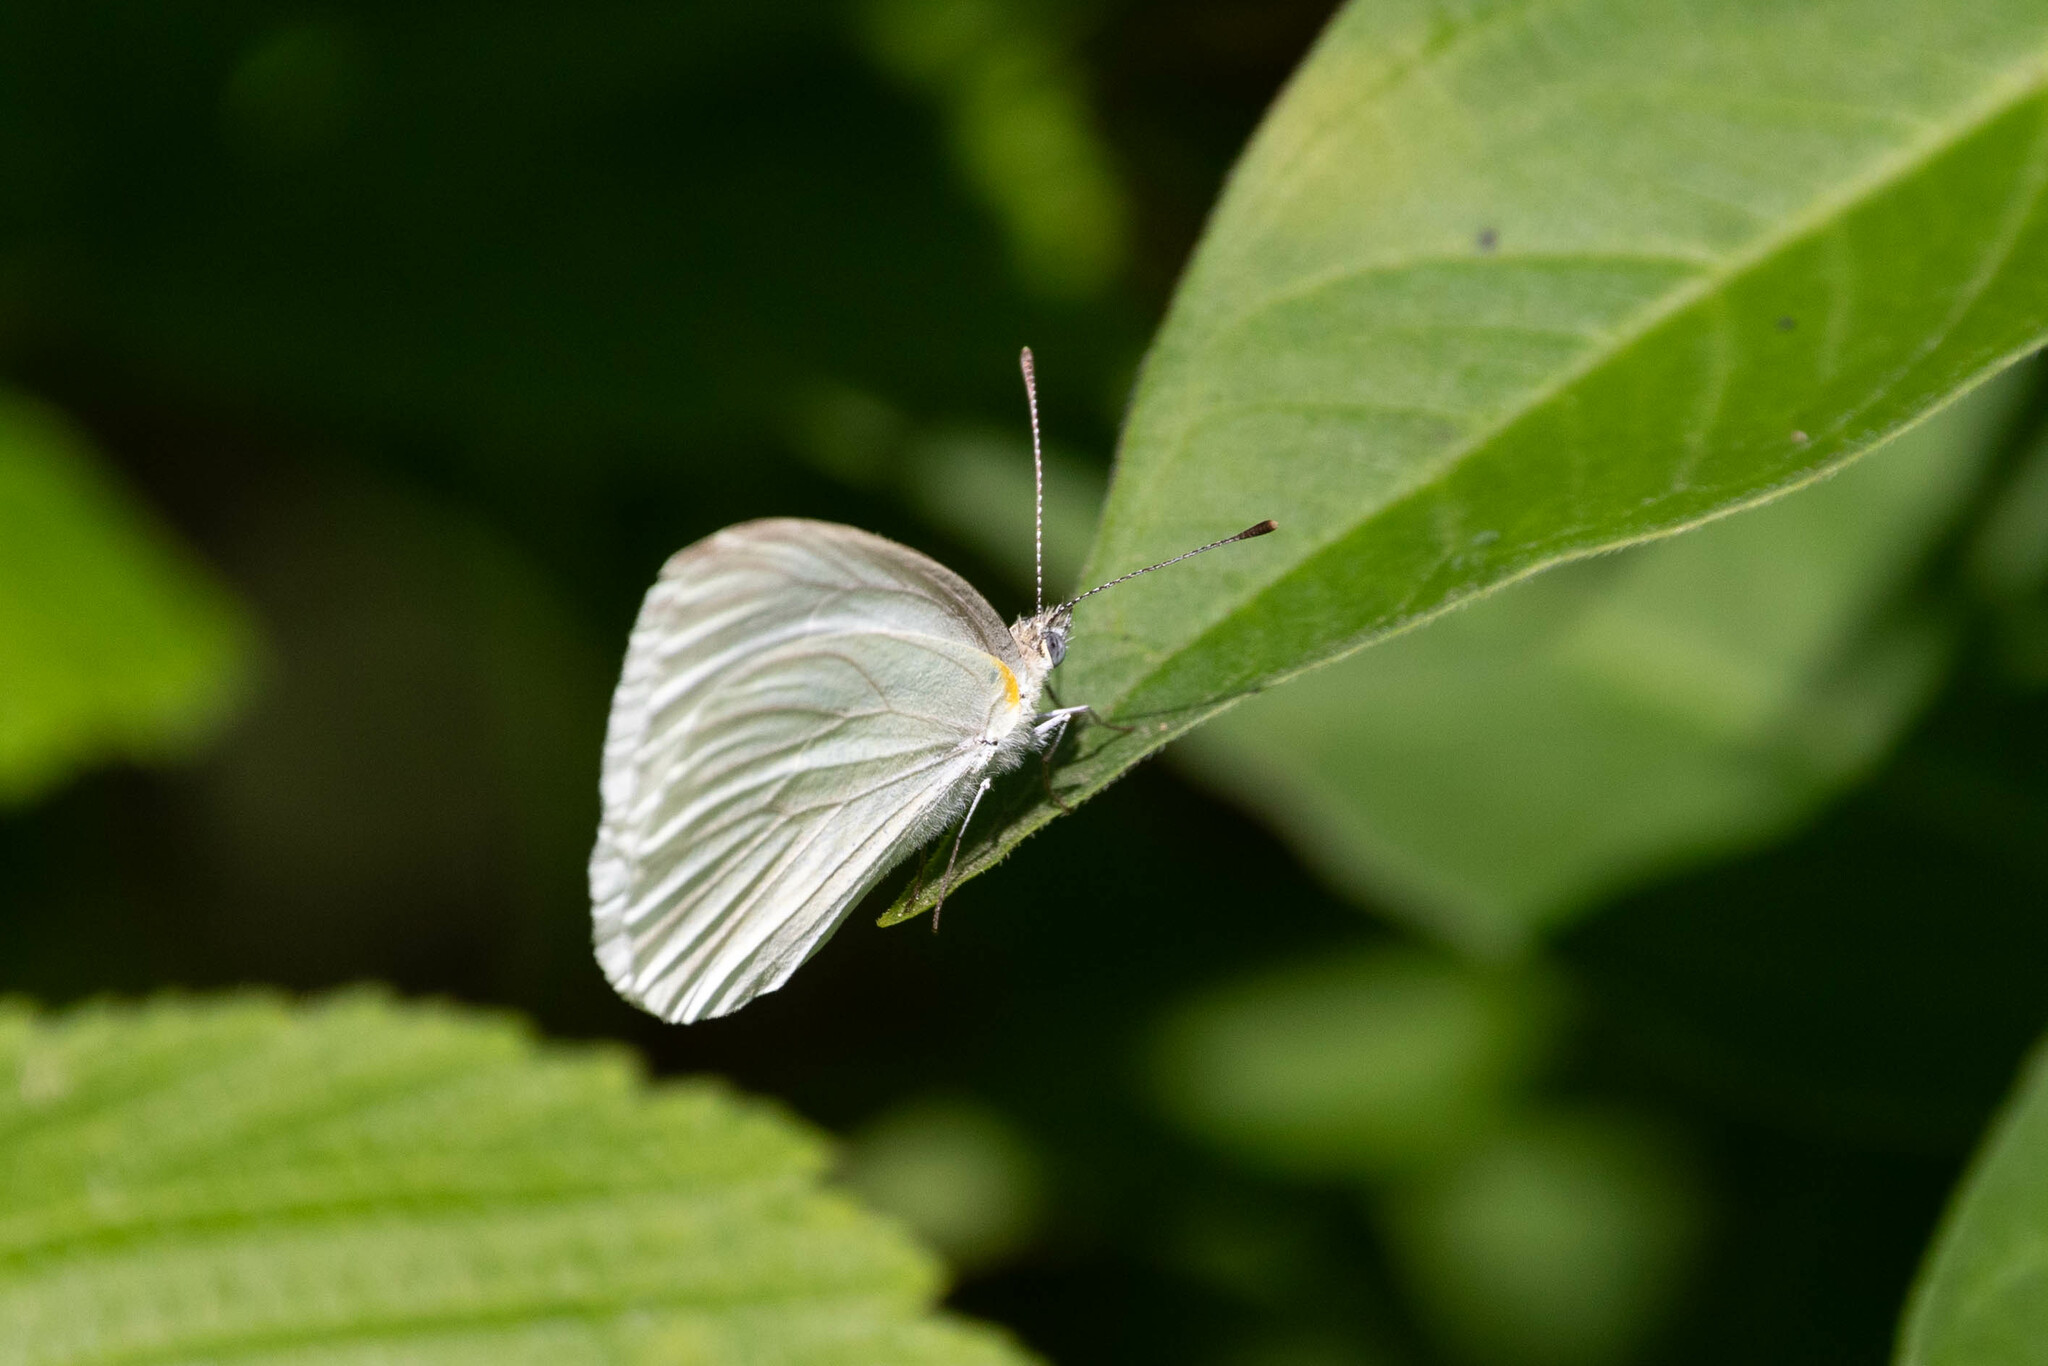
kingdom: Animalia
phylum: Arthropoda
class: Insecta
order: Lepidoptera
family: Pieridae
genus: Pieris
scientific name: Pieris oleracea
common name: Mustard white
